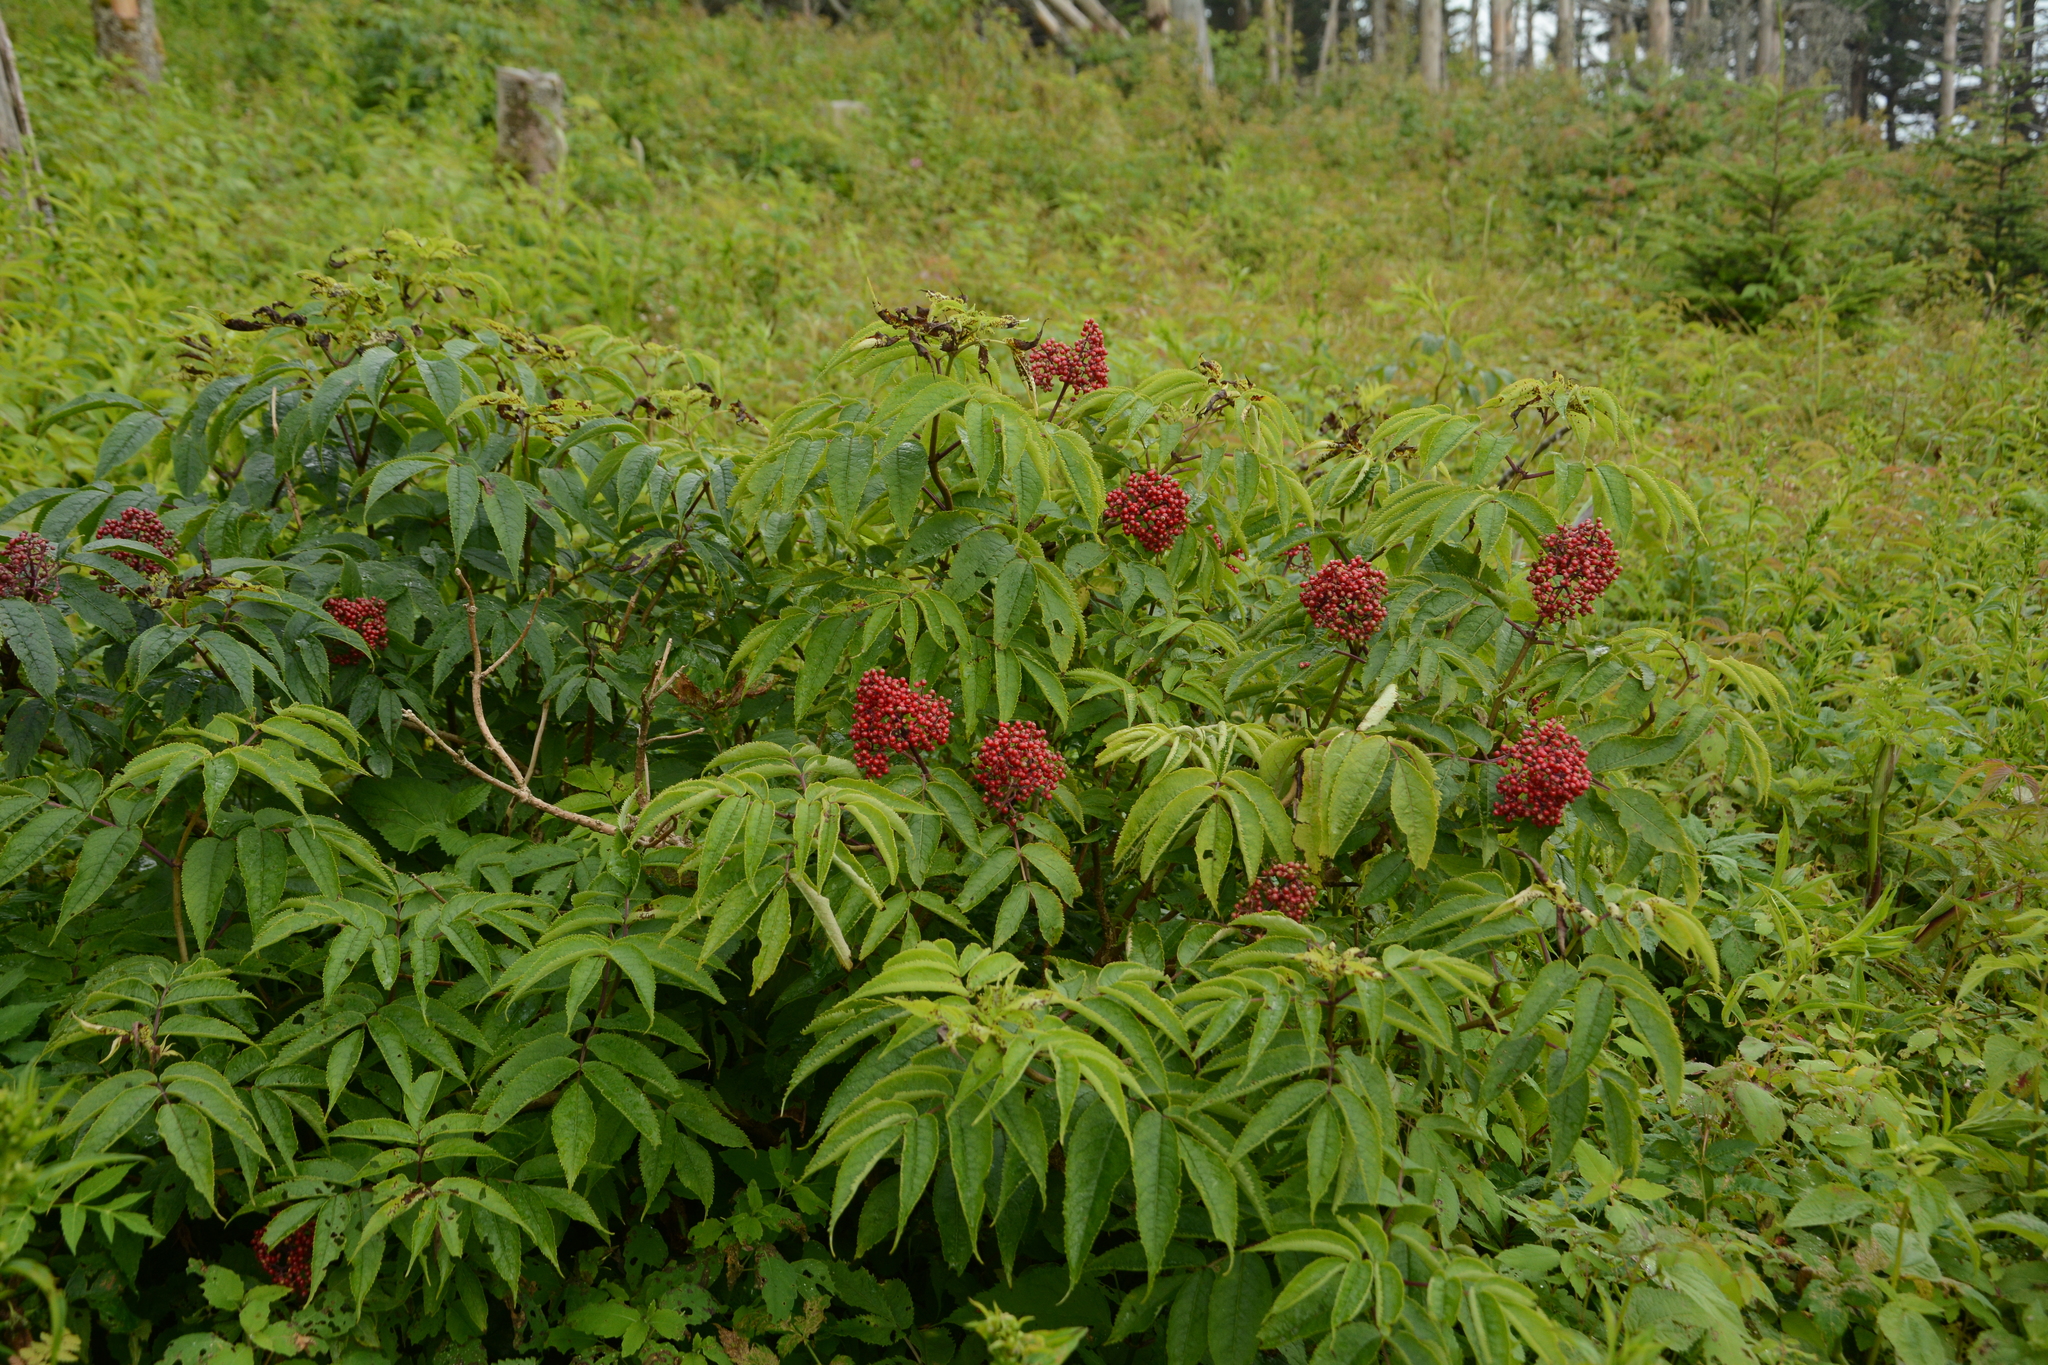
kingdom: Plantae
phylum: Tracheophyta
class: Magnoliopsida
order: Dipsacales
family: Viburnaceae
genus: Sambucus
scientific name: Sambucus racemosa
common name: Red-berried elder
